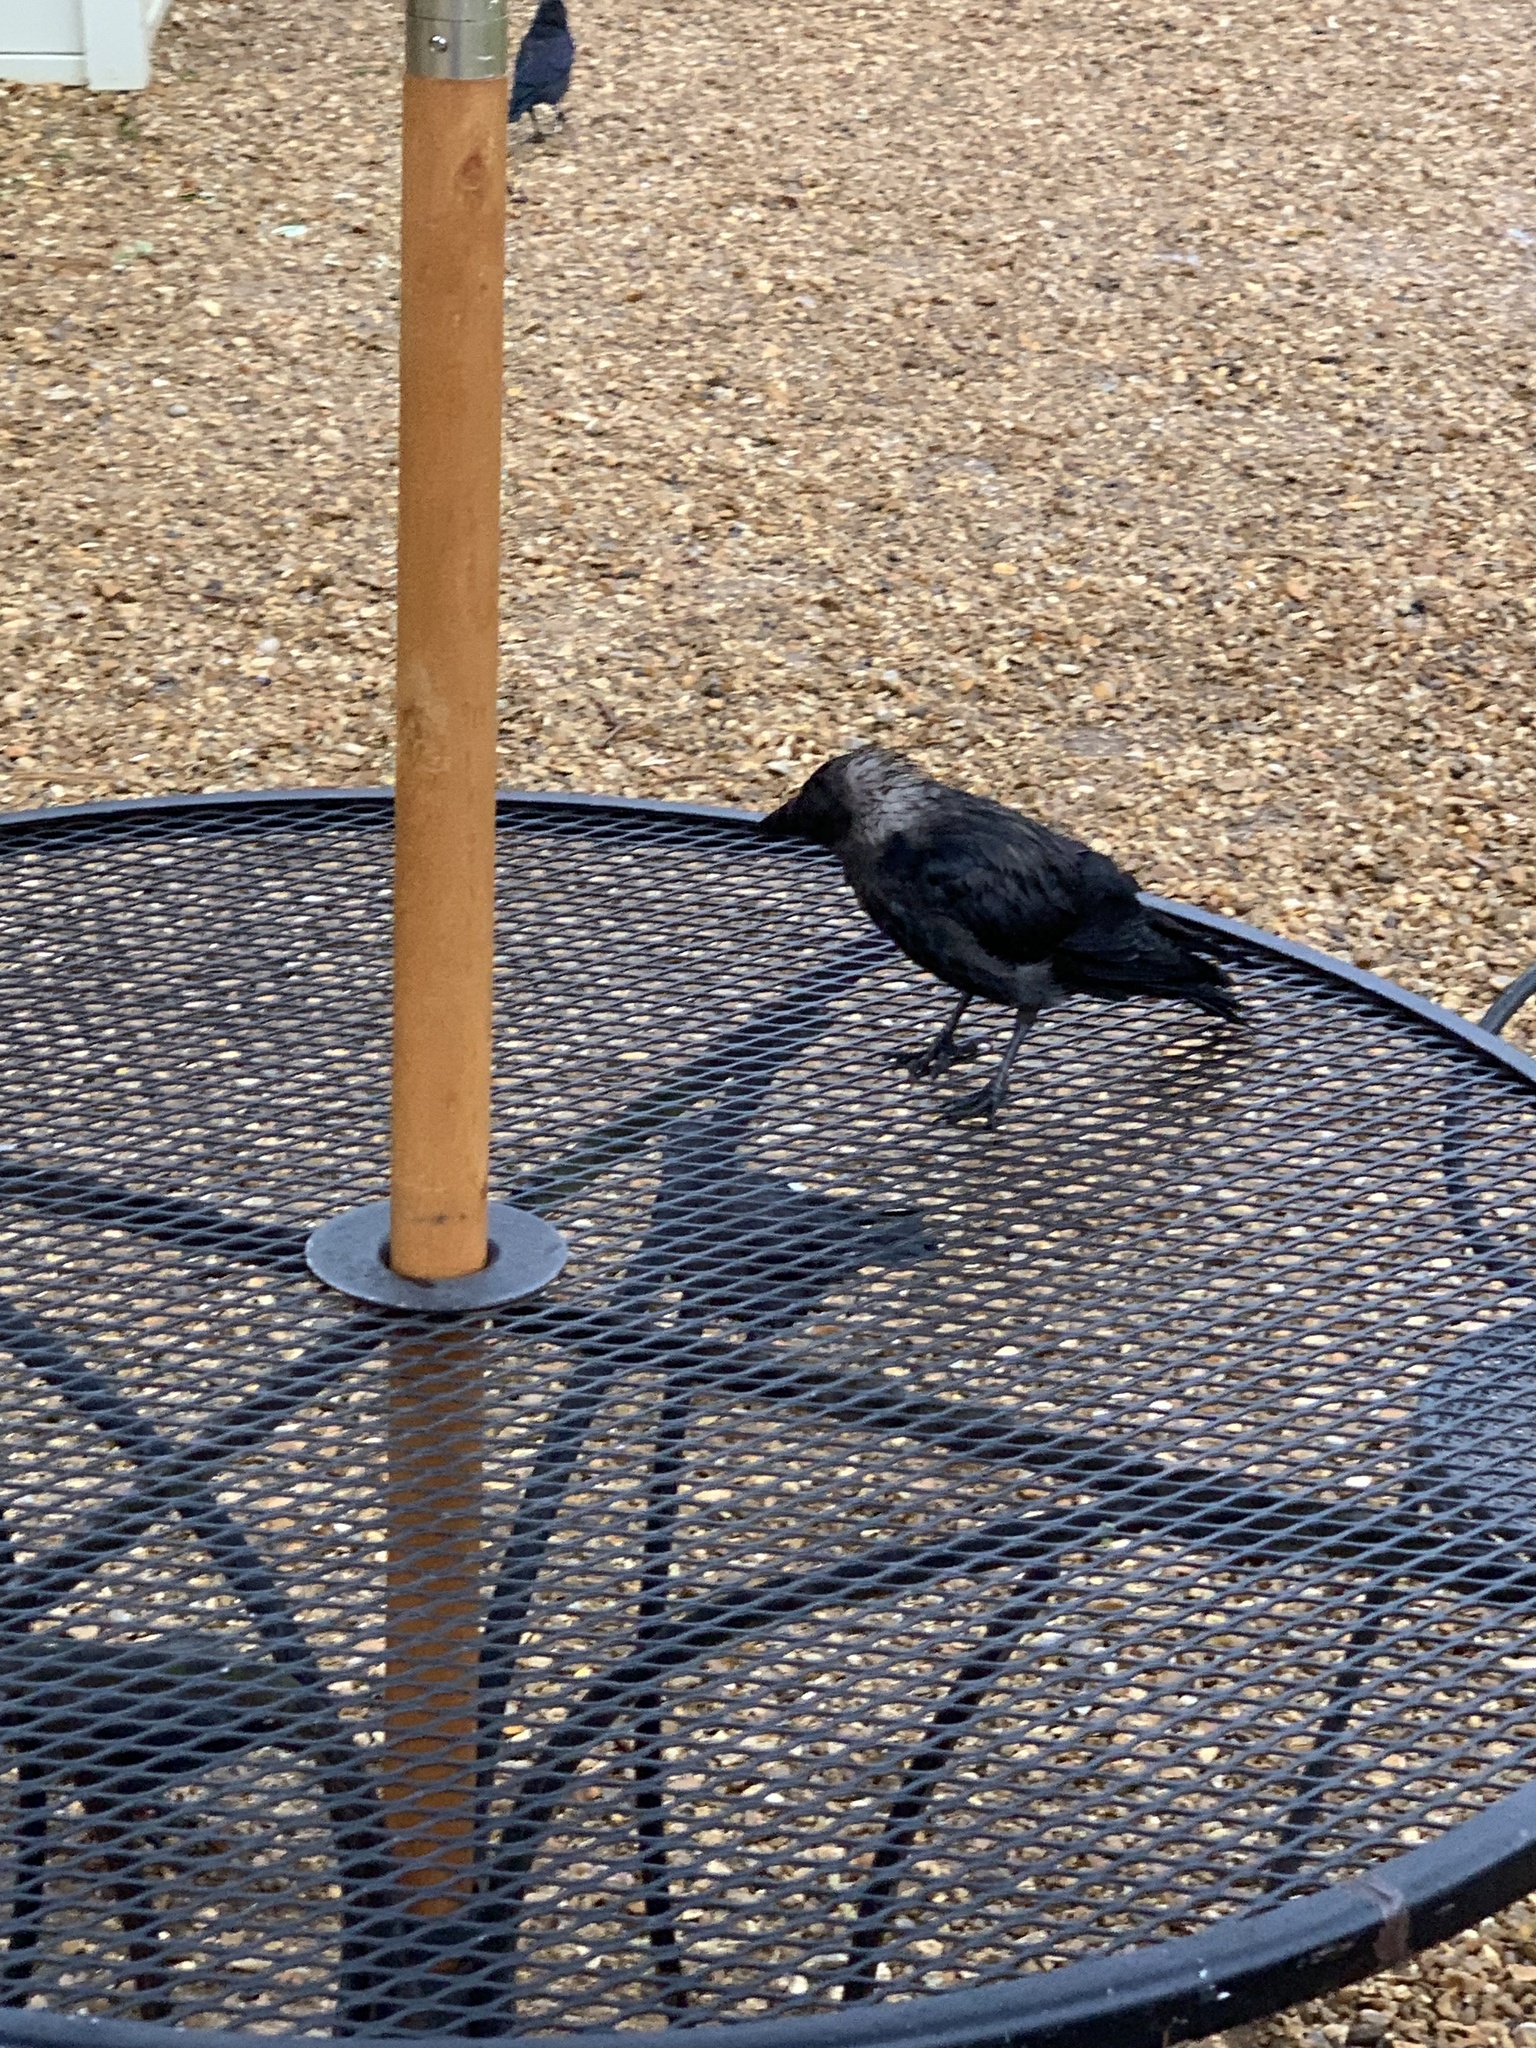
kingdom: Animalia
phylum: Chordata
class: Aves
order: Passeriformes
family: Corvidae
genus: Coloeus
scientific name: Coloeus monedula
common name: Western jackdaw
